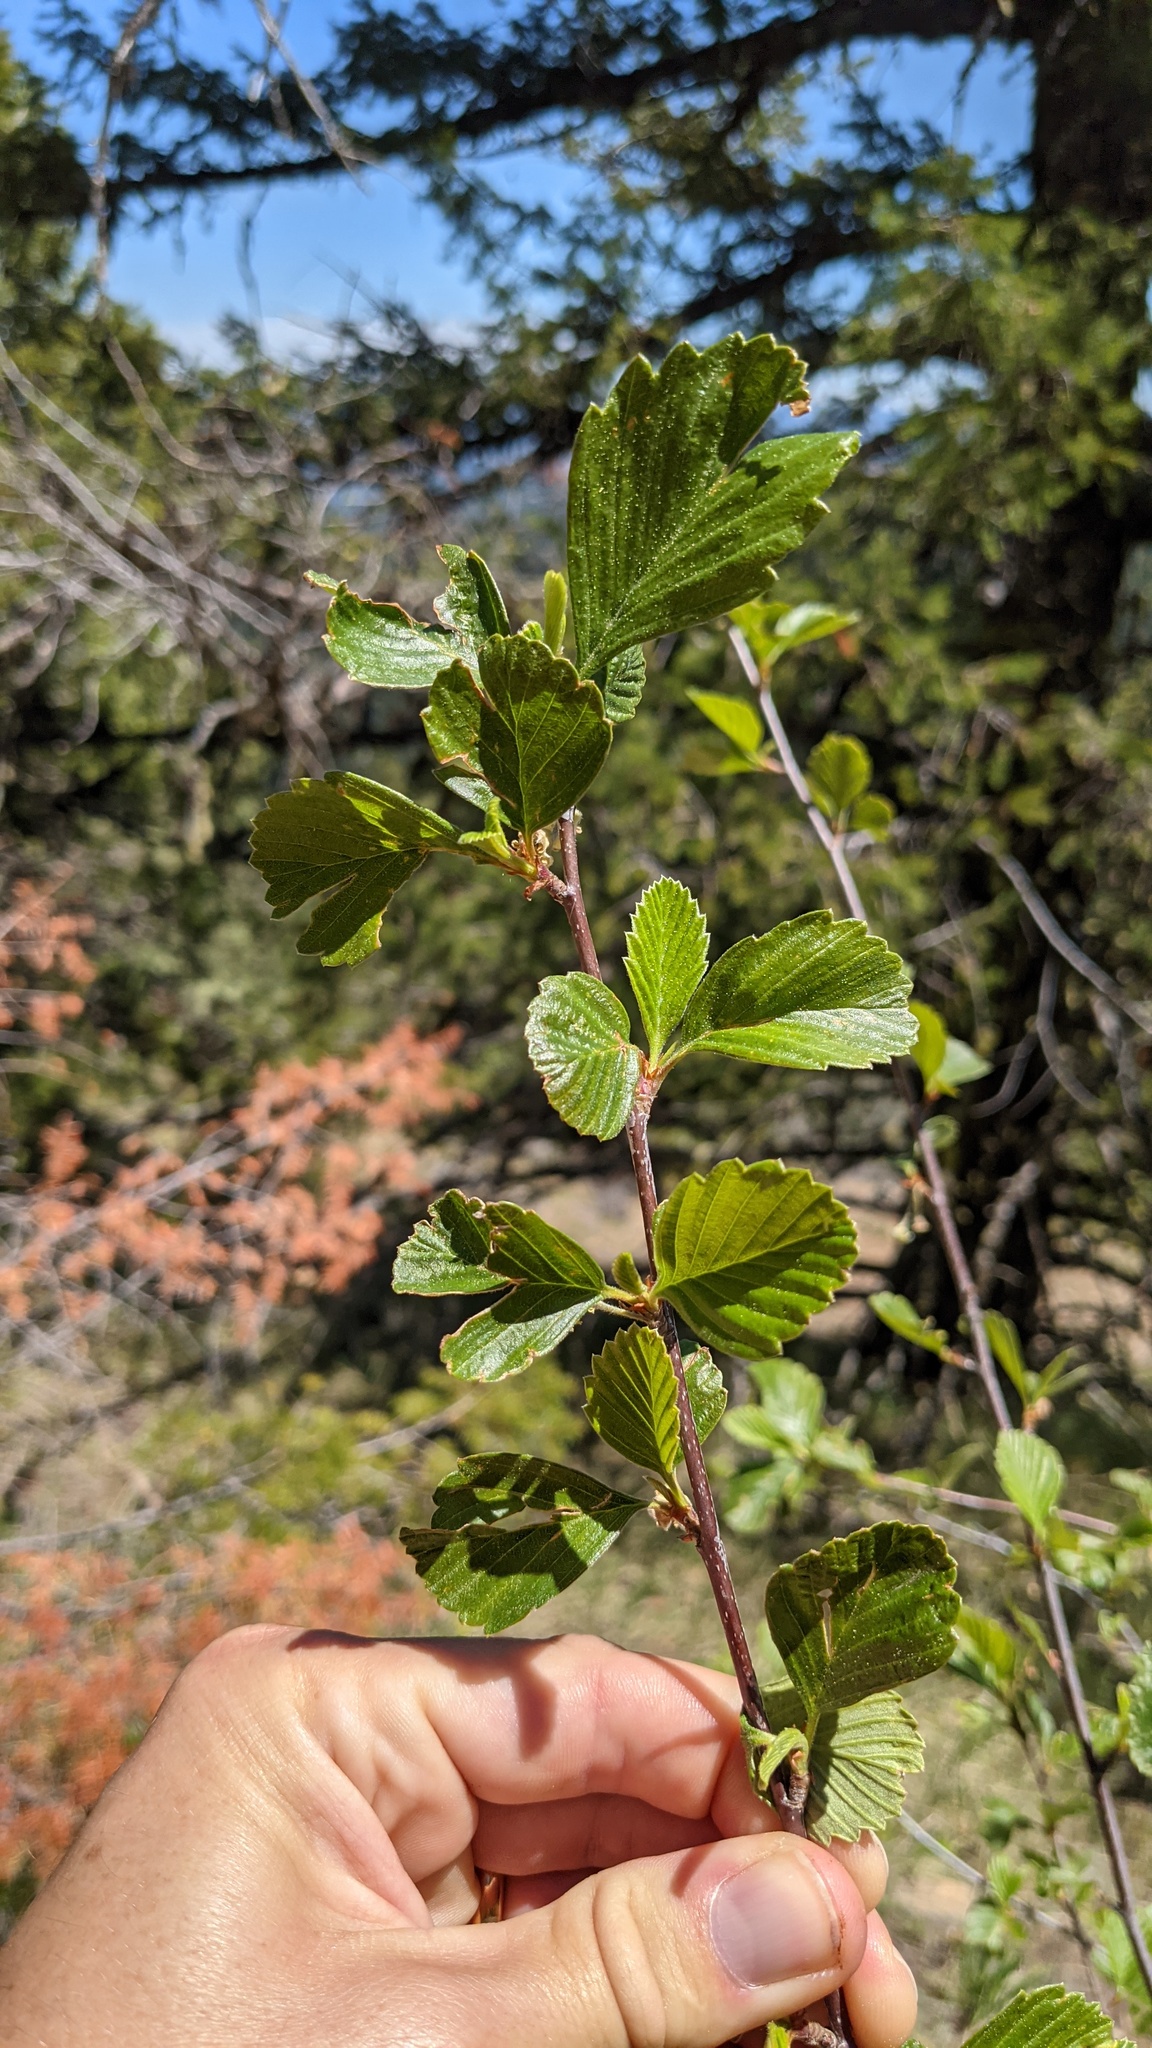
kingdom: Plantae
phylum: Tracheophyta
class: Magnoliopsida
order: Rosales
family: Rosaceae
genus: Cercocarpus
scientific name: Cercocarpus betuloides
